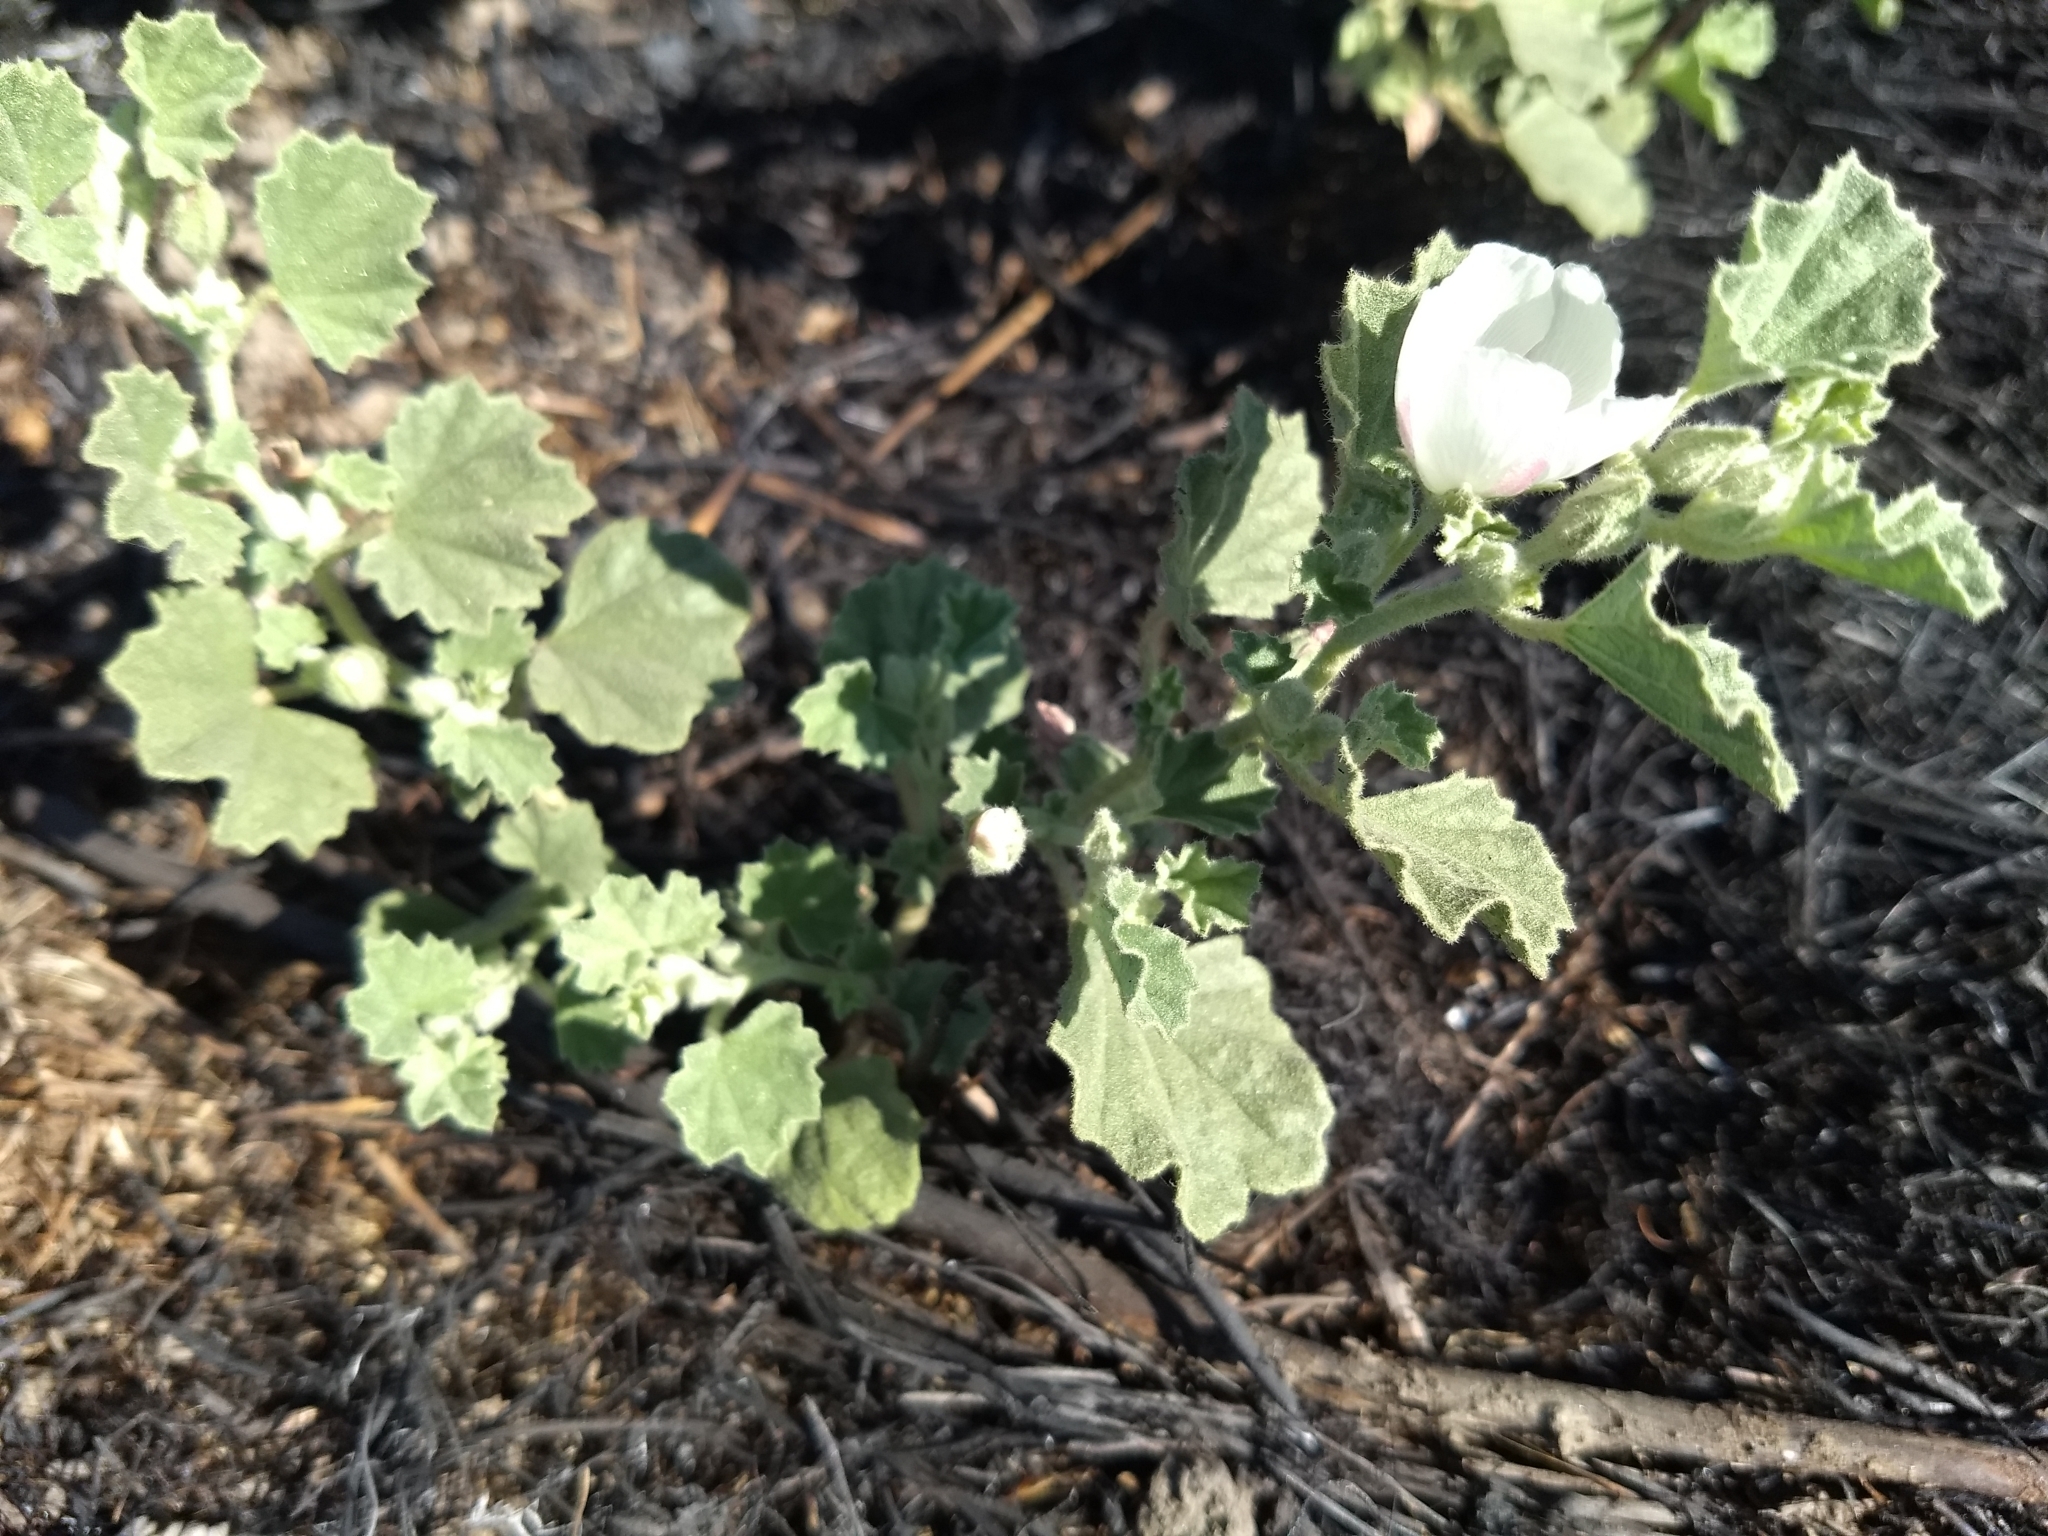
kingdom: Plantae
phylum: Tracheophyta
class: Magnoliopsida
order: Malvales
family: Malvaceae
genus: Malvella
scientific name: Malvella leprosa
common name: Alkali-mallow
